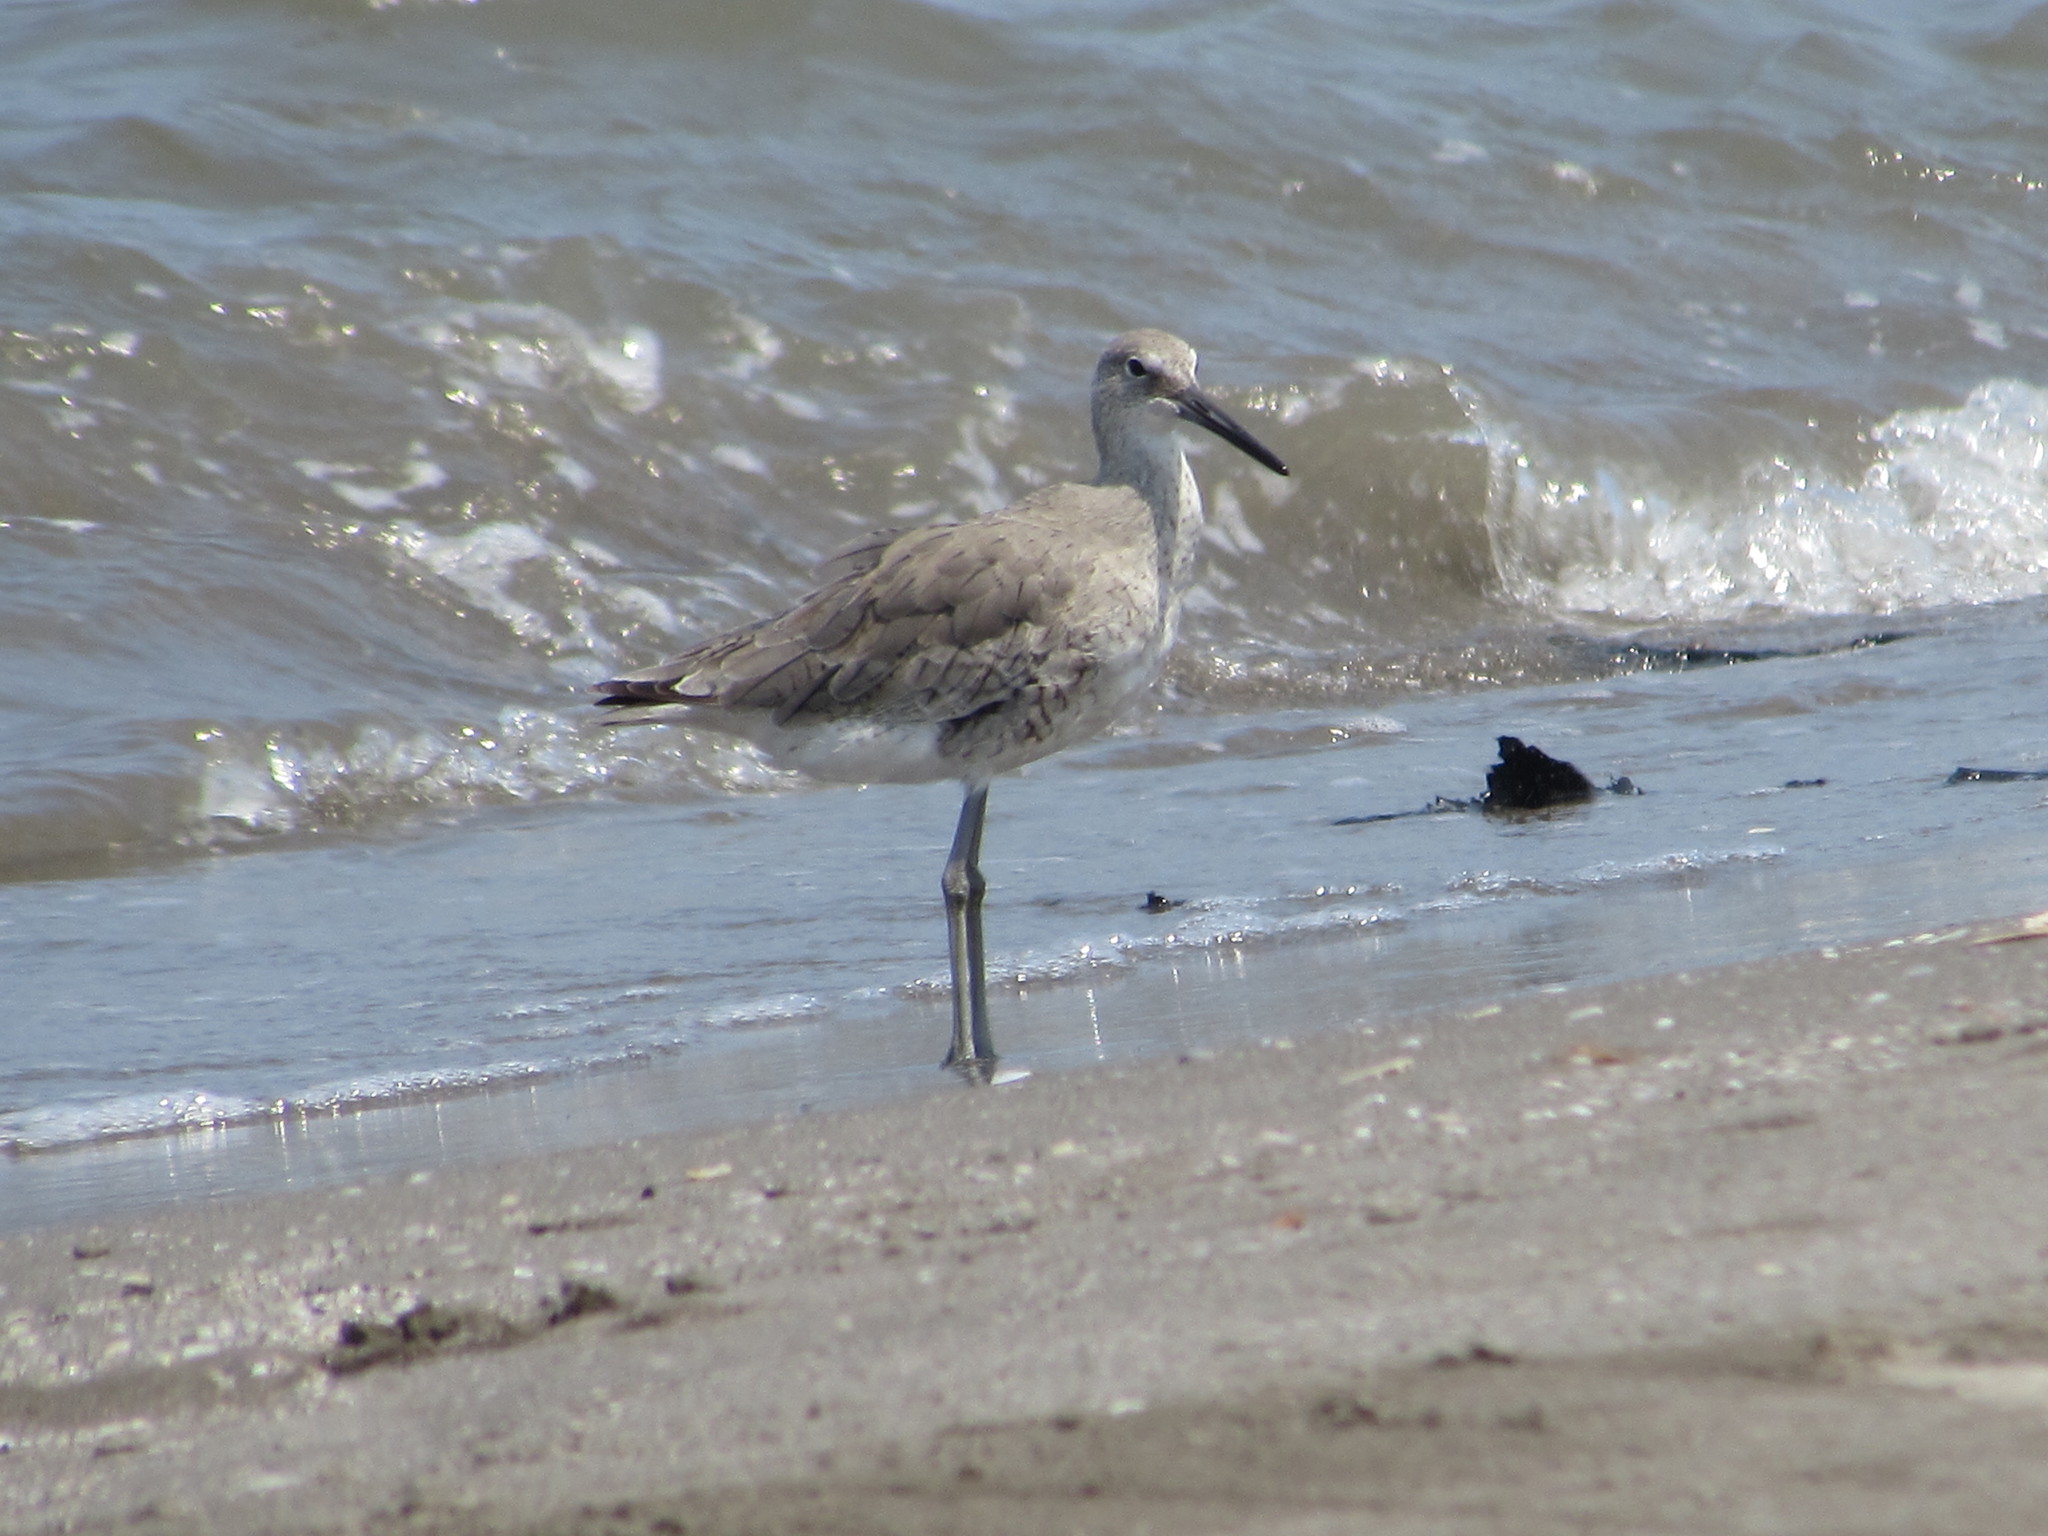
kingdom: Animalia
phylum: Chordata
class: Aves
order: Charadriiformes
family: Scolopacidae
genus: Tringa
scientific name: Tringa semipalmata
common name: Willet
